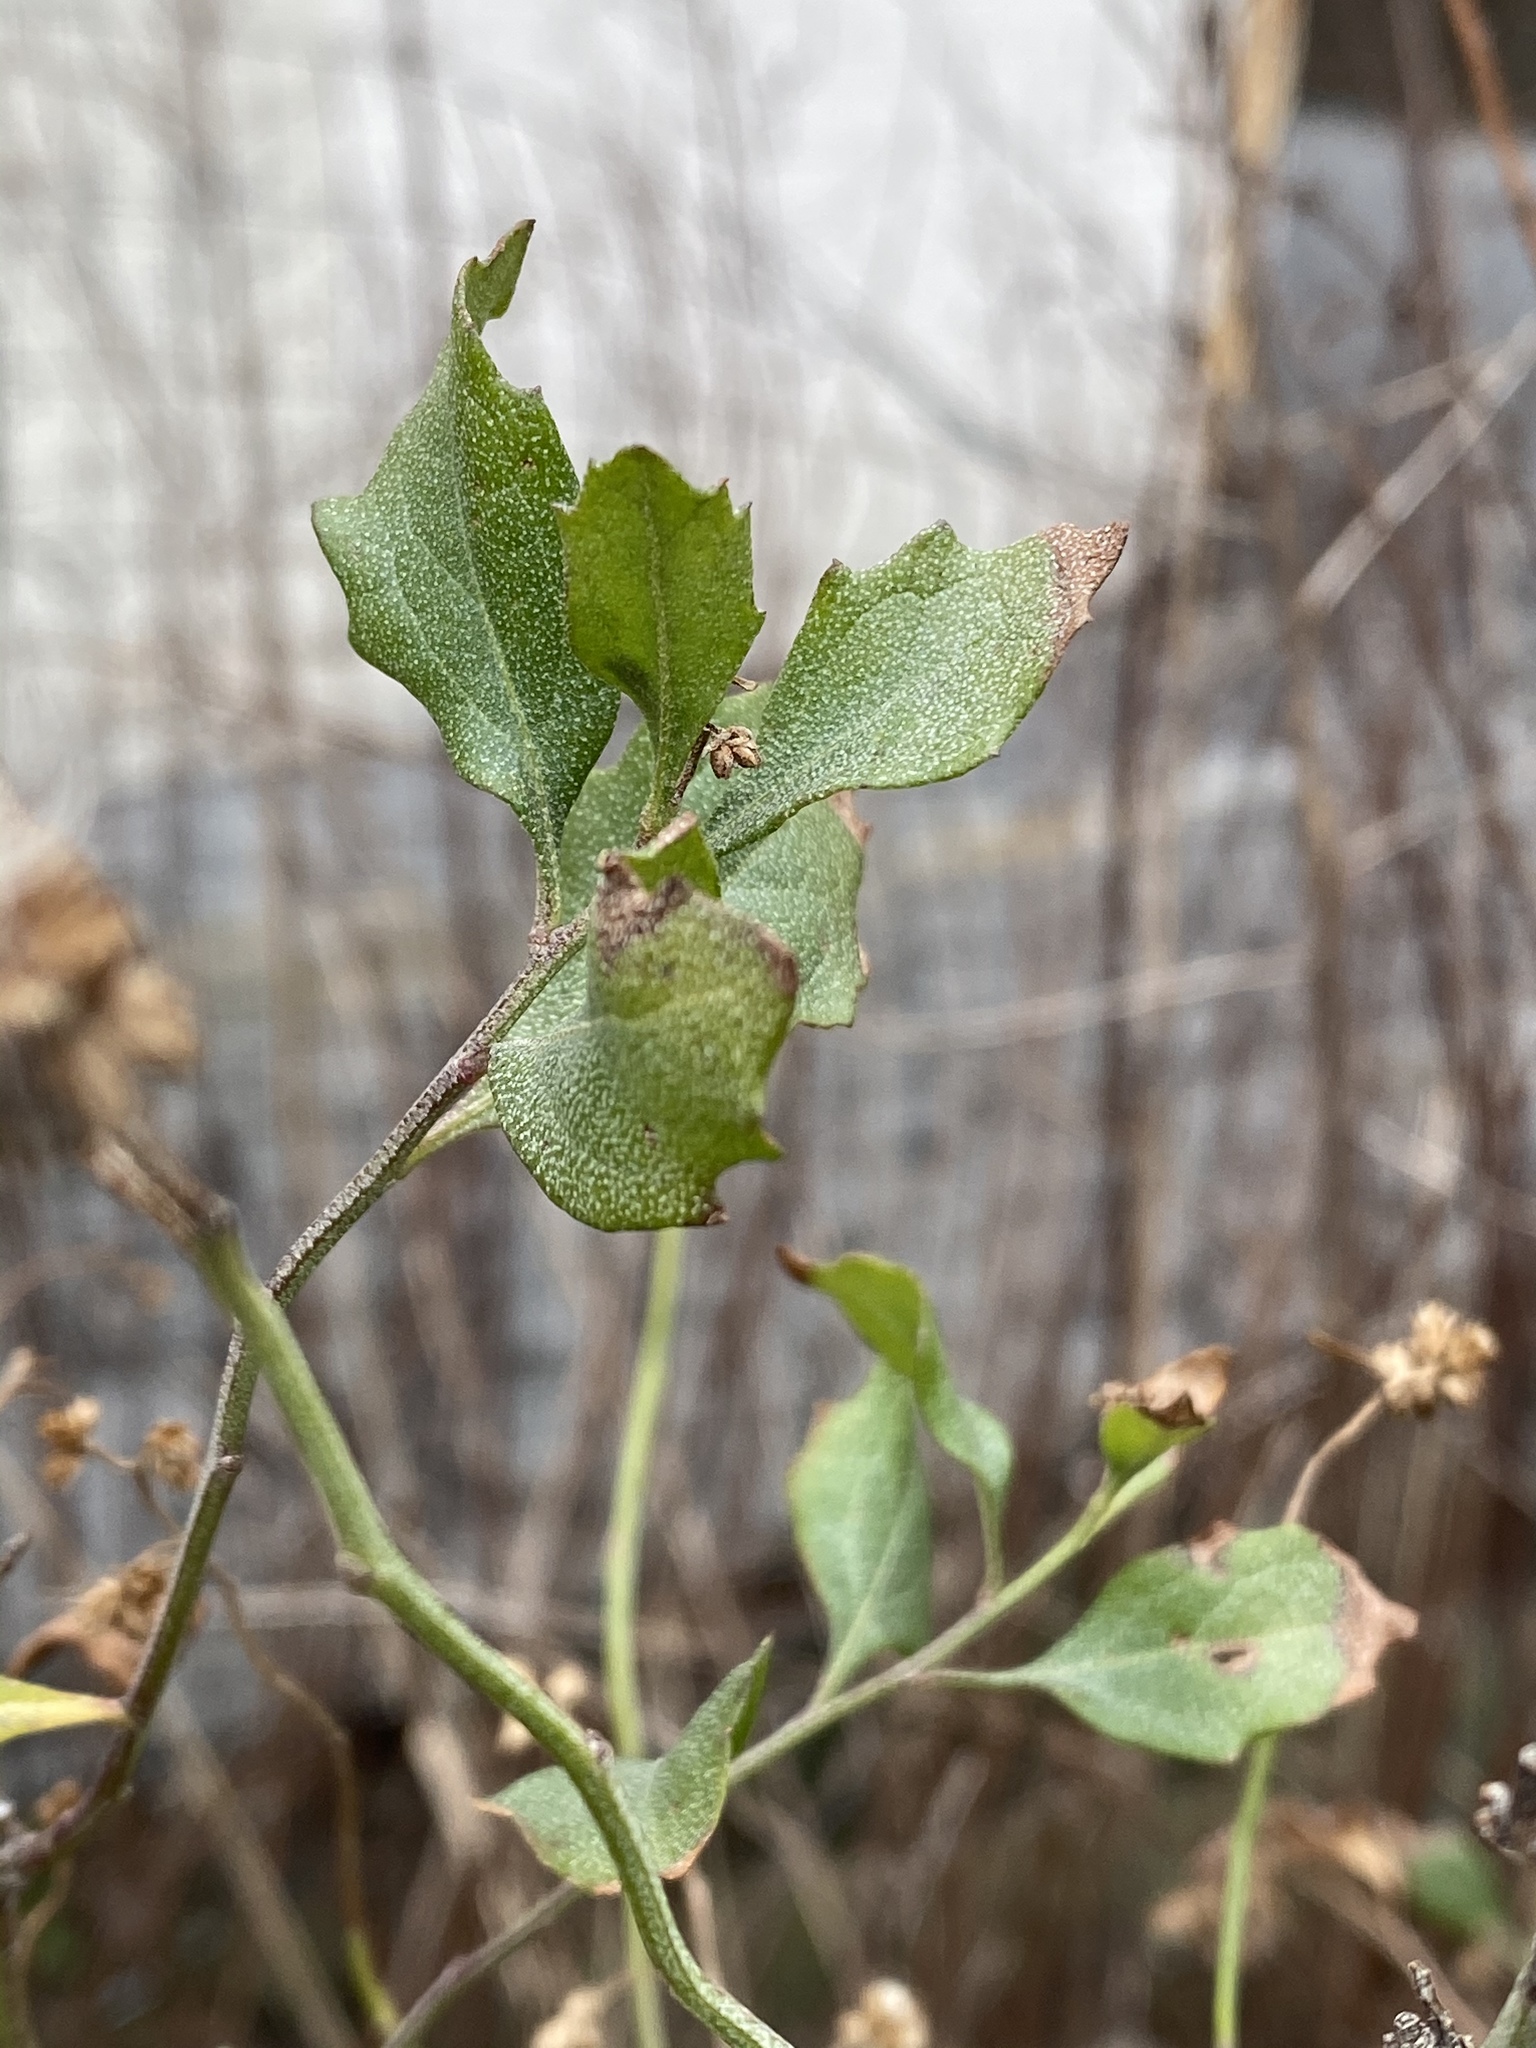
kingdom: Plantae
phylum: Tracheophyta
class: Magnoliopsida
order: Asterales
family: Asteraceae
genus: Baccharis
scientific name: Baccharis halimifolia
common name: Eastern baccharis
